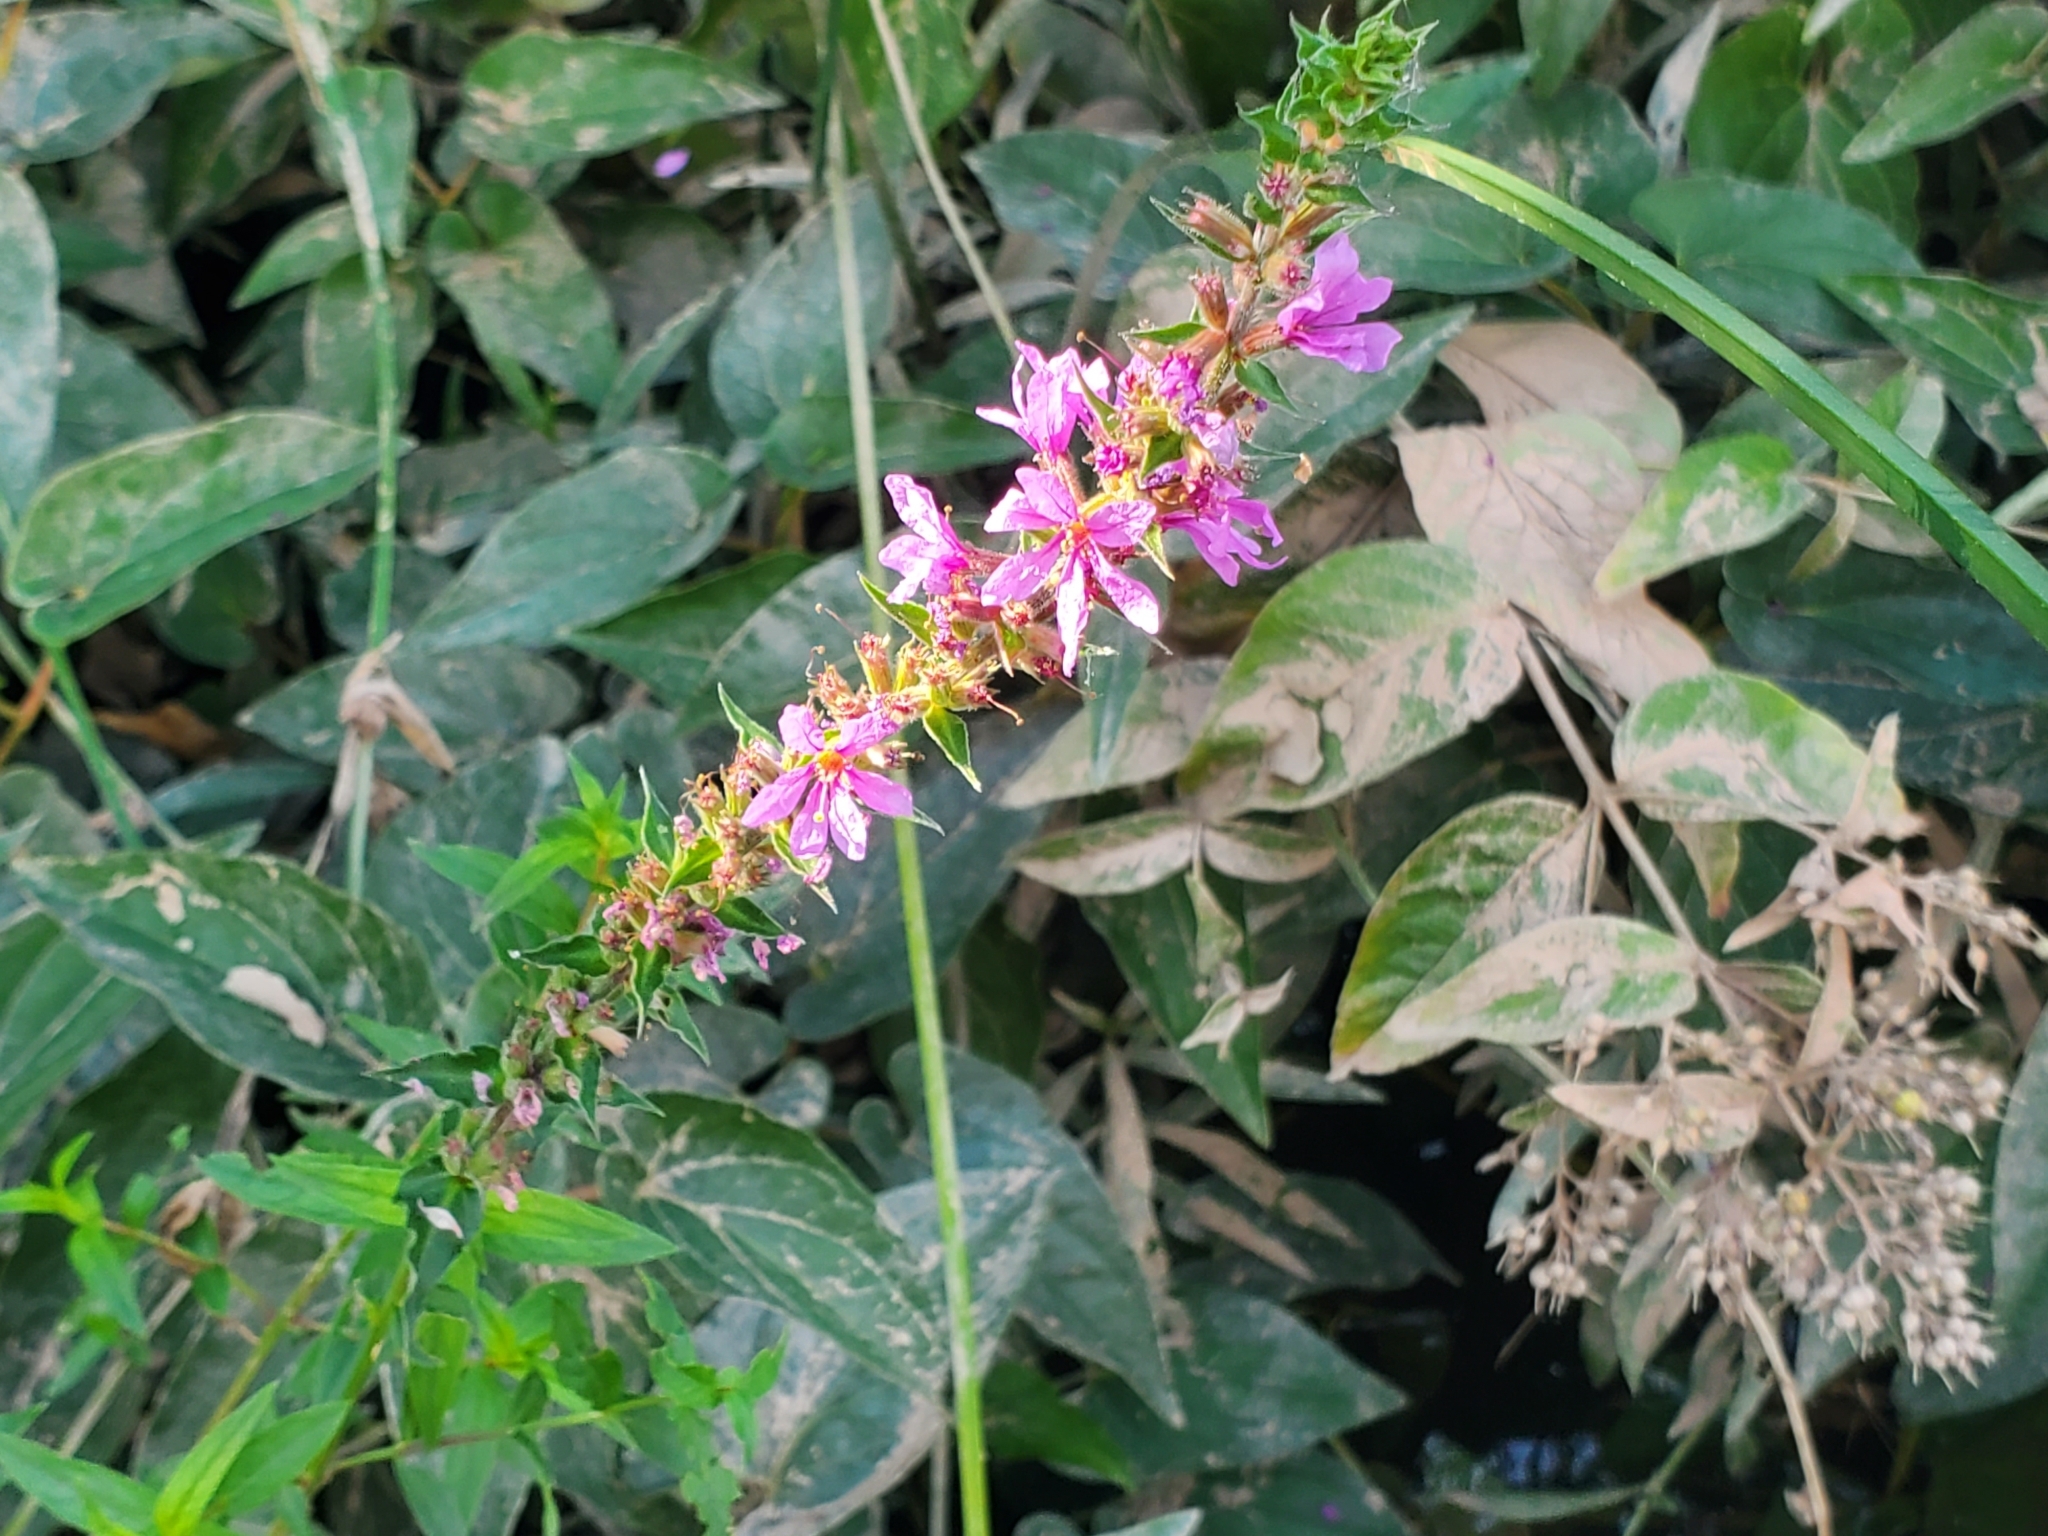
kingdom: Plantae
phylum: Tracheophyta
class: Magnoliopsida
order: Myrtales
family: Lythraceae
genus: Lythrum
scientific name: Lythrum salicaria
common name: Purple loosestrife
